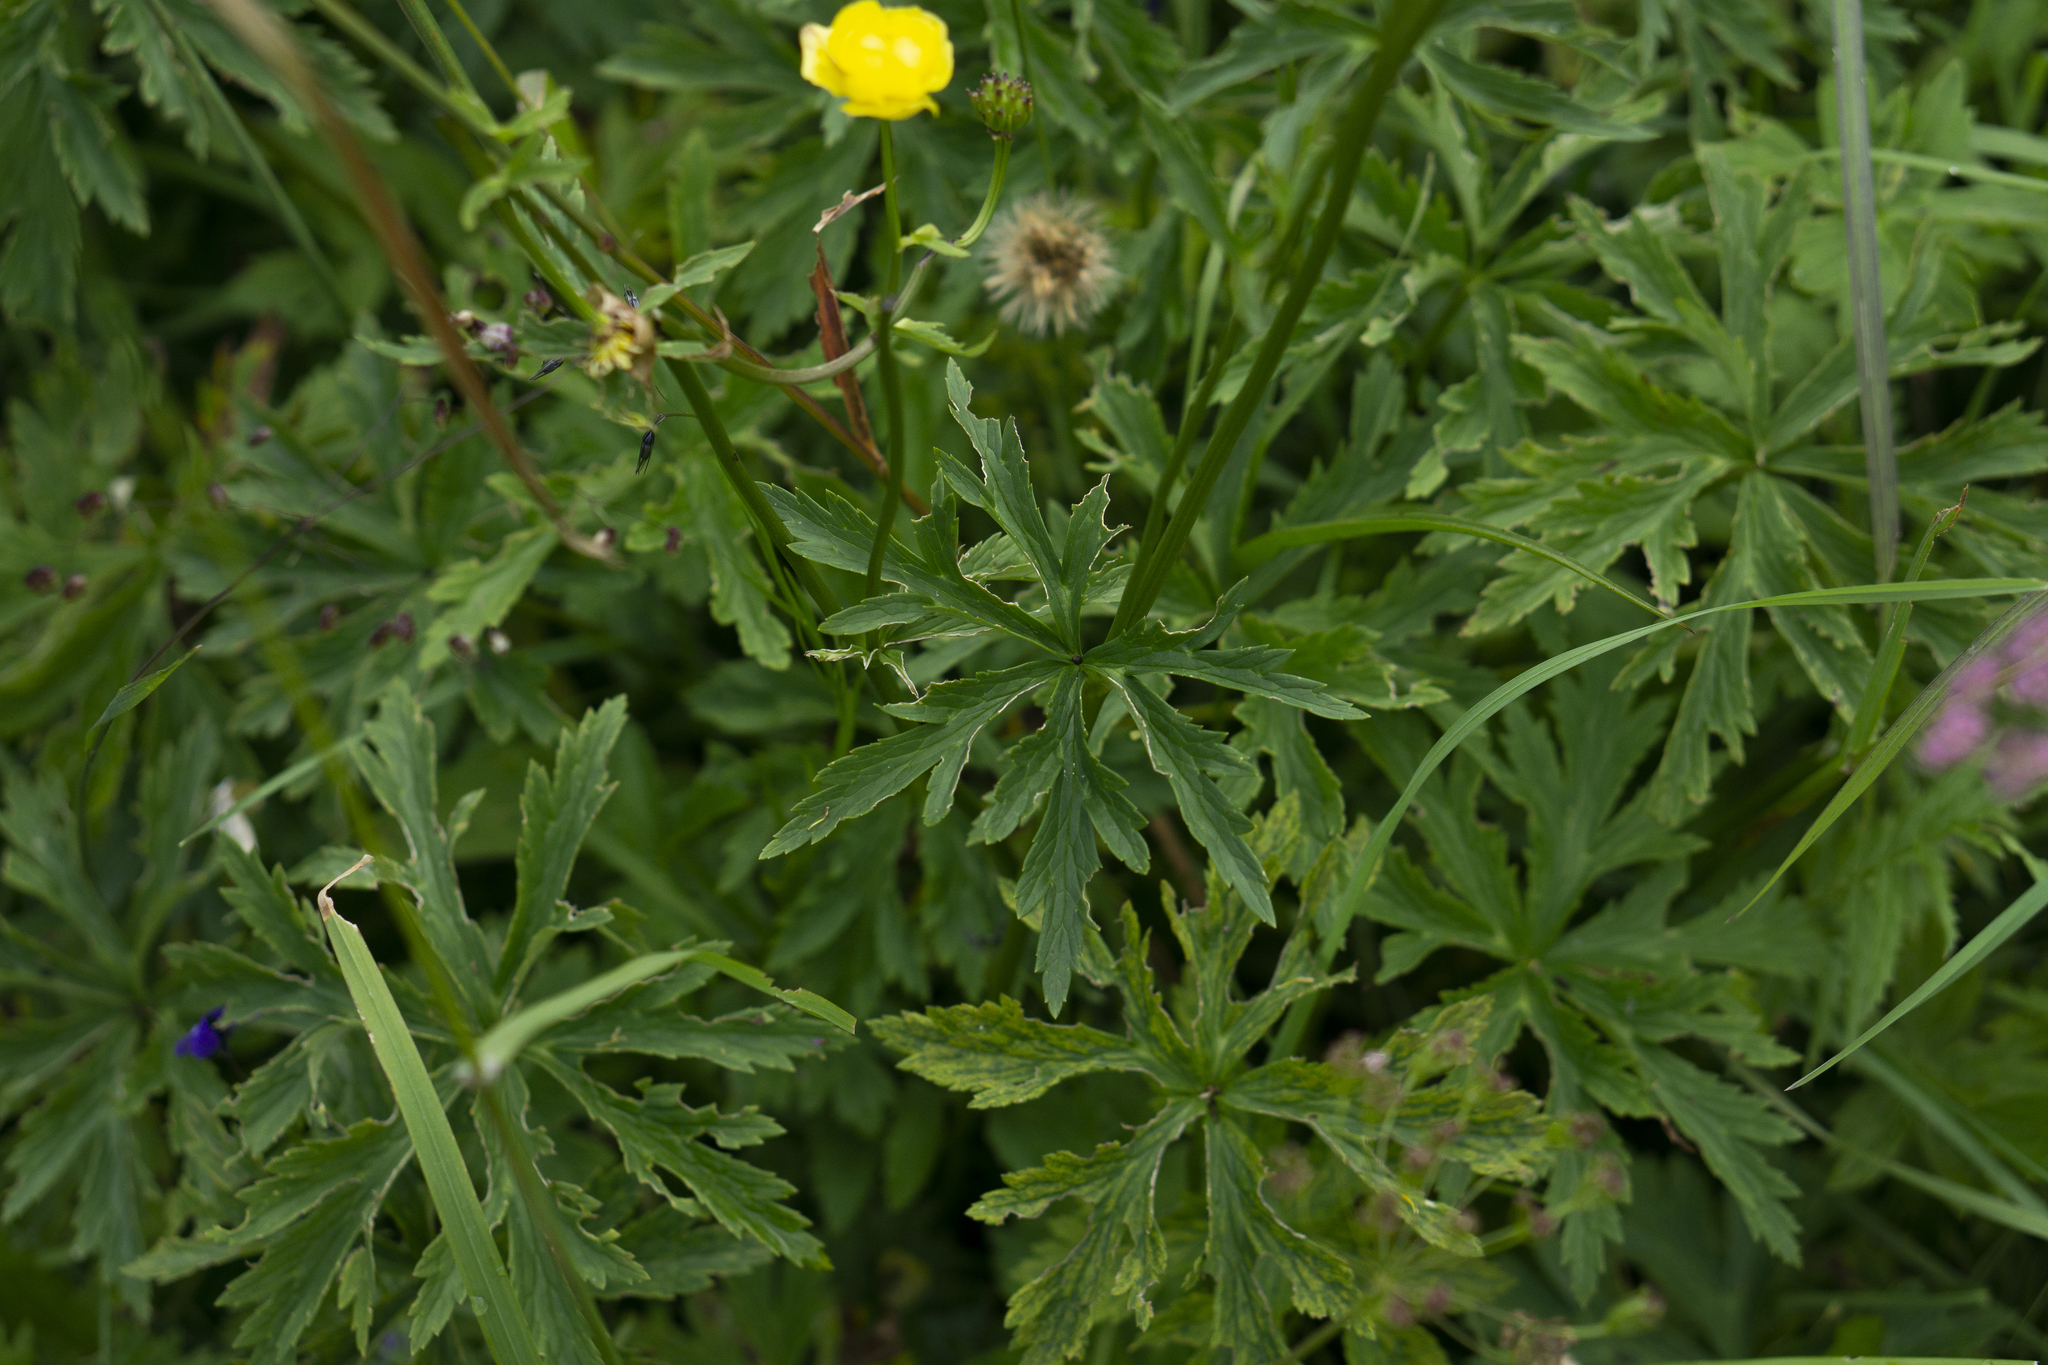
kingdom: Plantae
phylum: Tracheophyta
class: Magnoliopsida
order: Ranunculales
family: Ranunculaceae
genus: Trollius
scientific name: Trollius europaeus
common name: European globeflower
